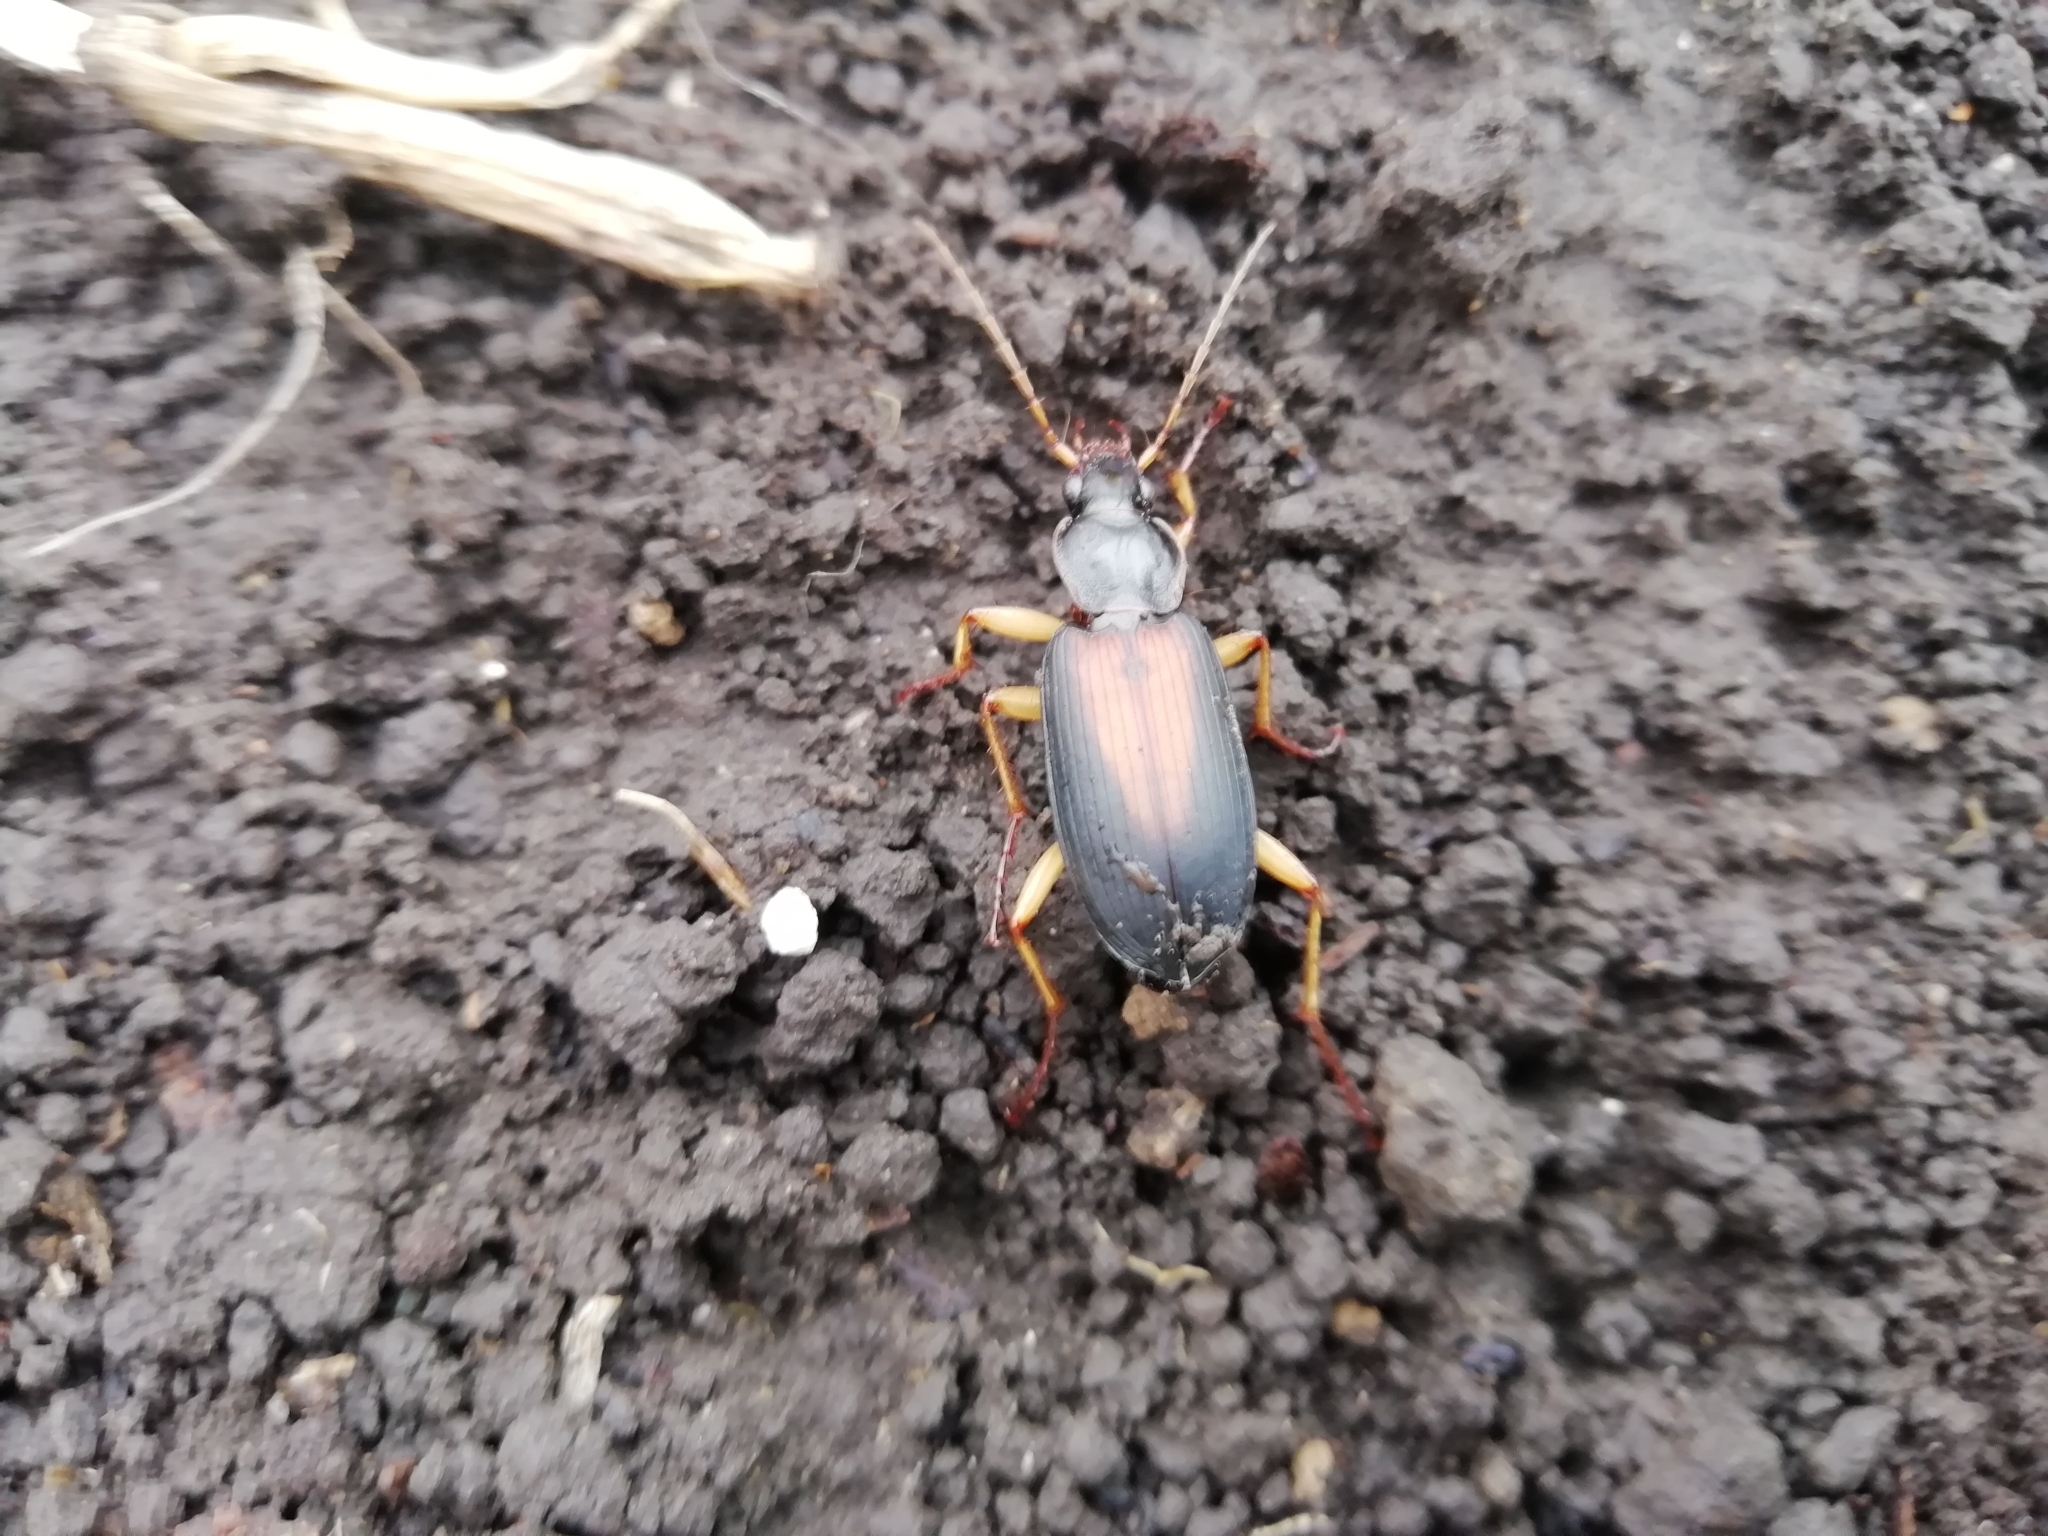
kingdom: Animalia
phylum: Arthropoda
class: Insecta
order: Coleoptera
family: Carabidae
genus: Dolichus
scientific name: Dolichus halensis
